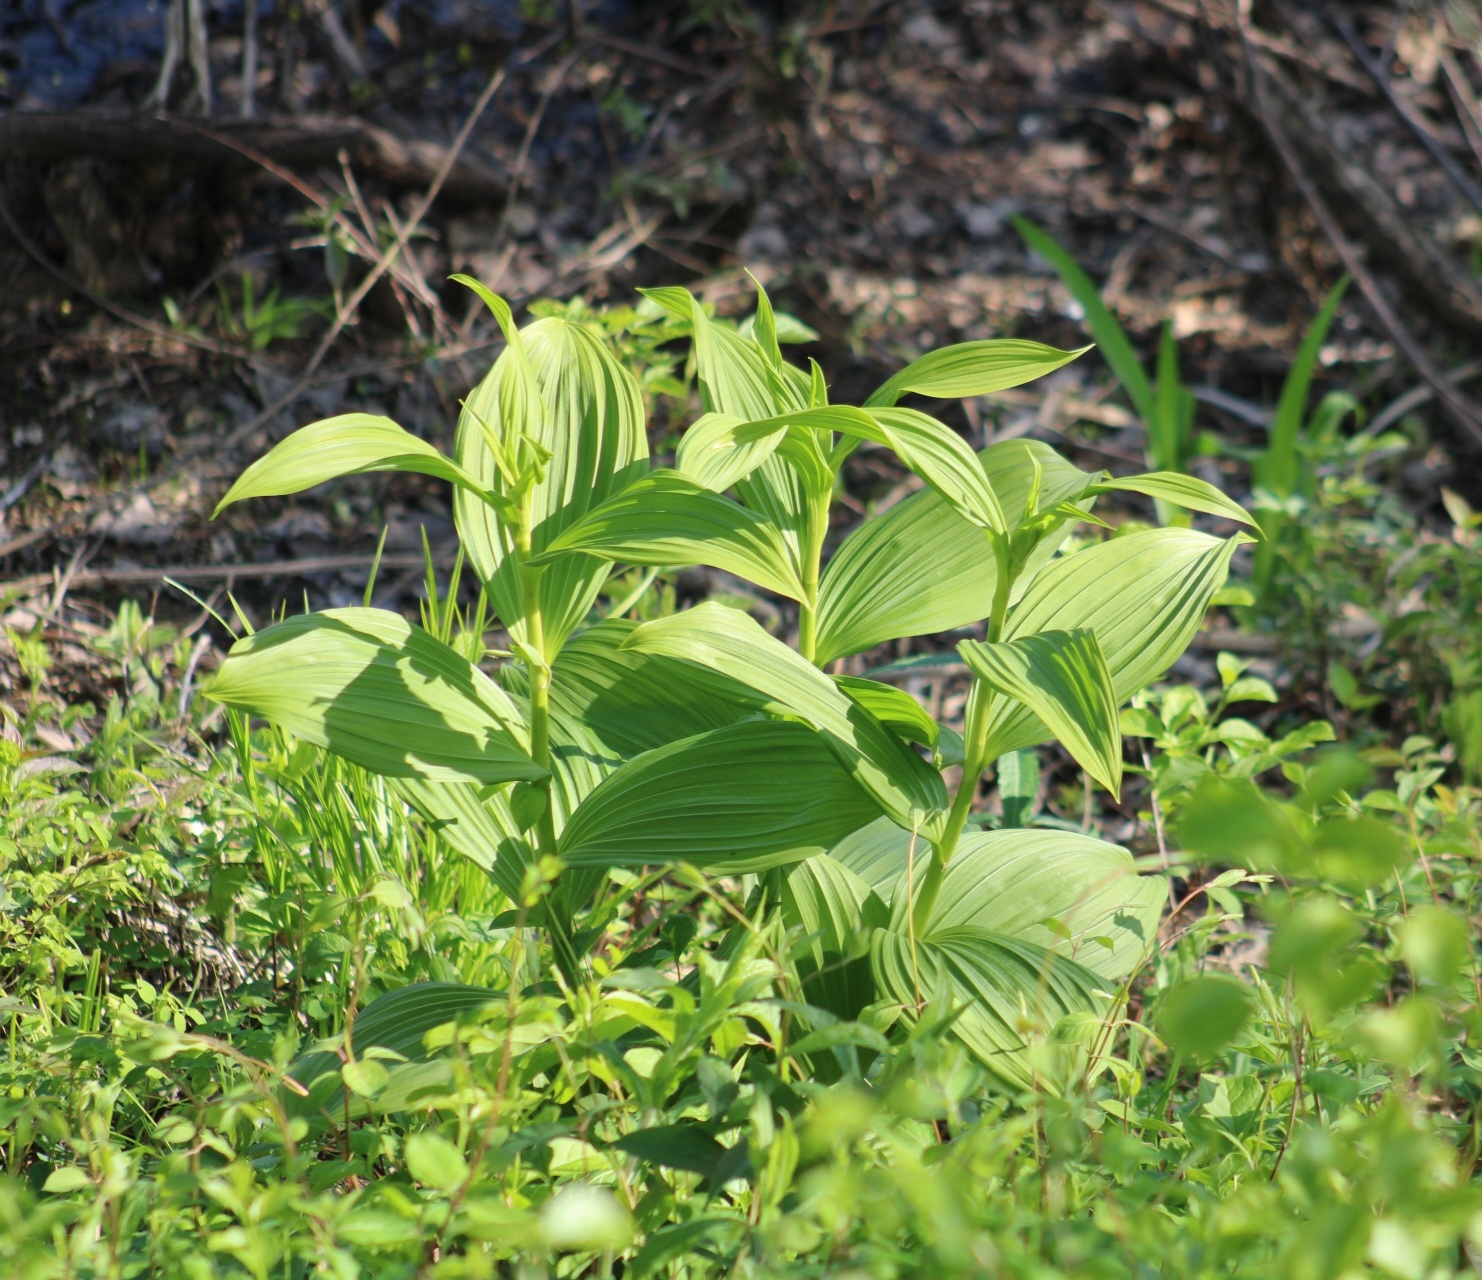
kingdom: Plantae
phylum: Tracheophyta
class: Liliopsida
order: Liliales
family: Melanthiaceae
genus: Veratrum
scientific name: Veratrum viride
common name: American false hellebore
